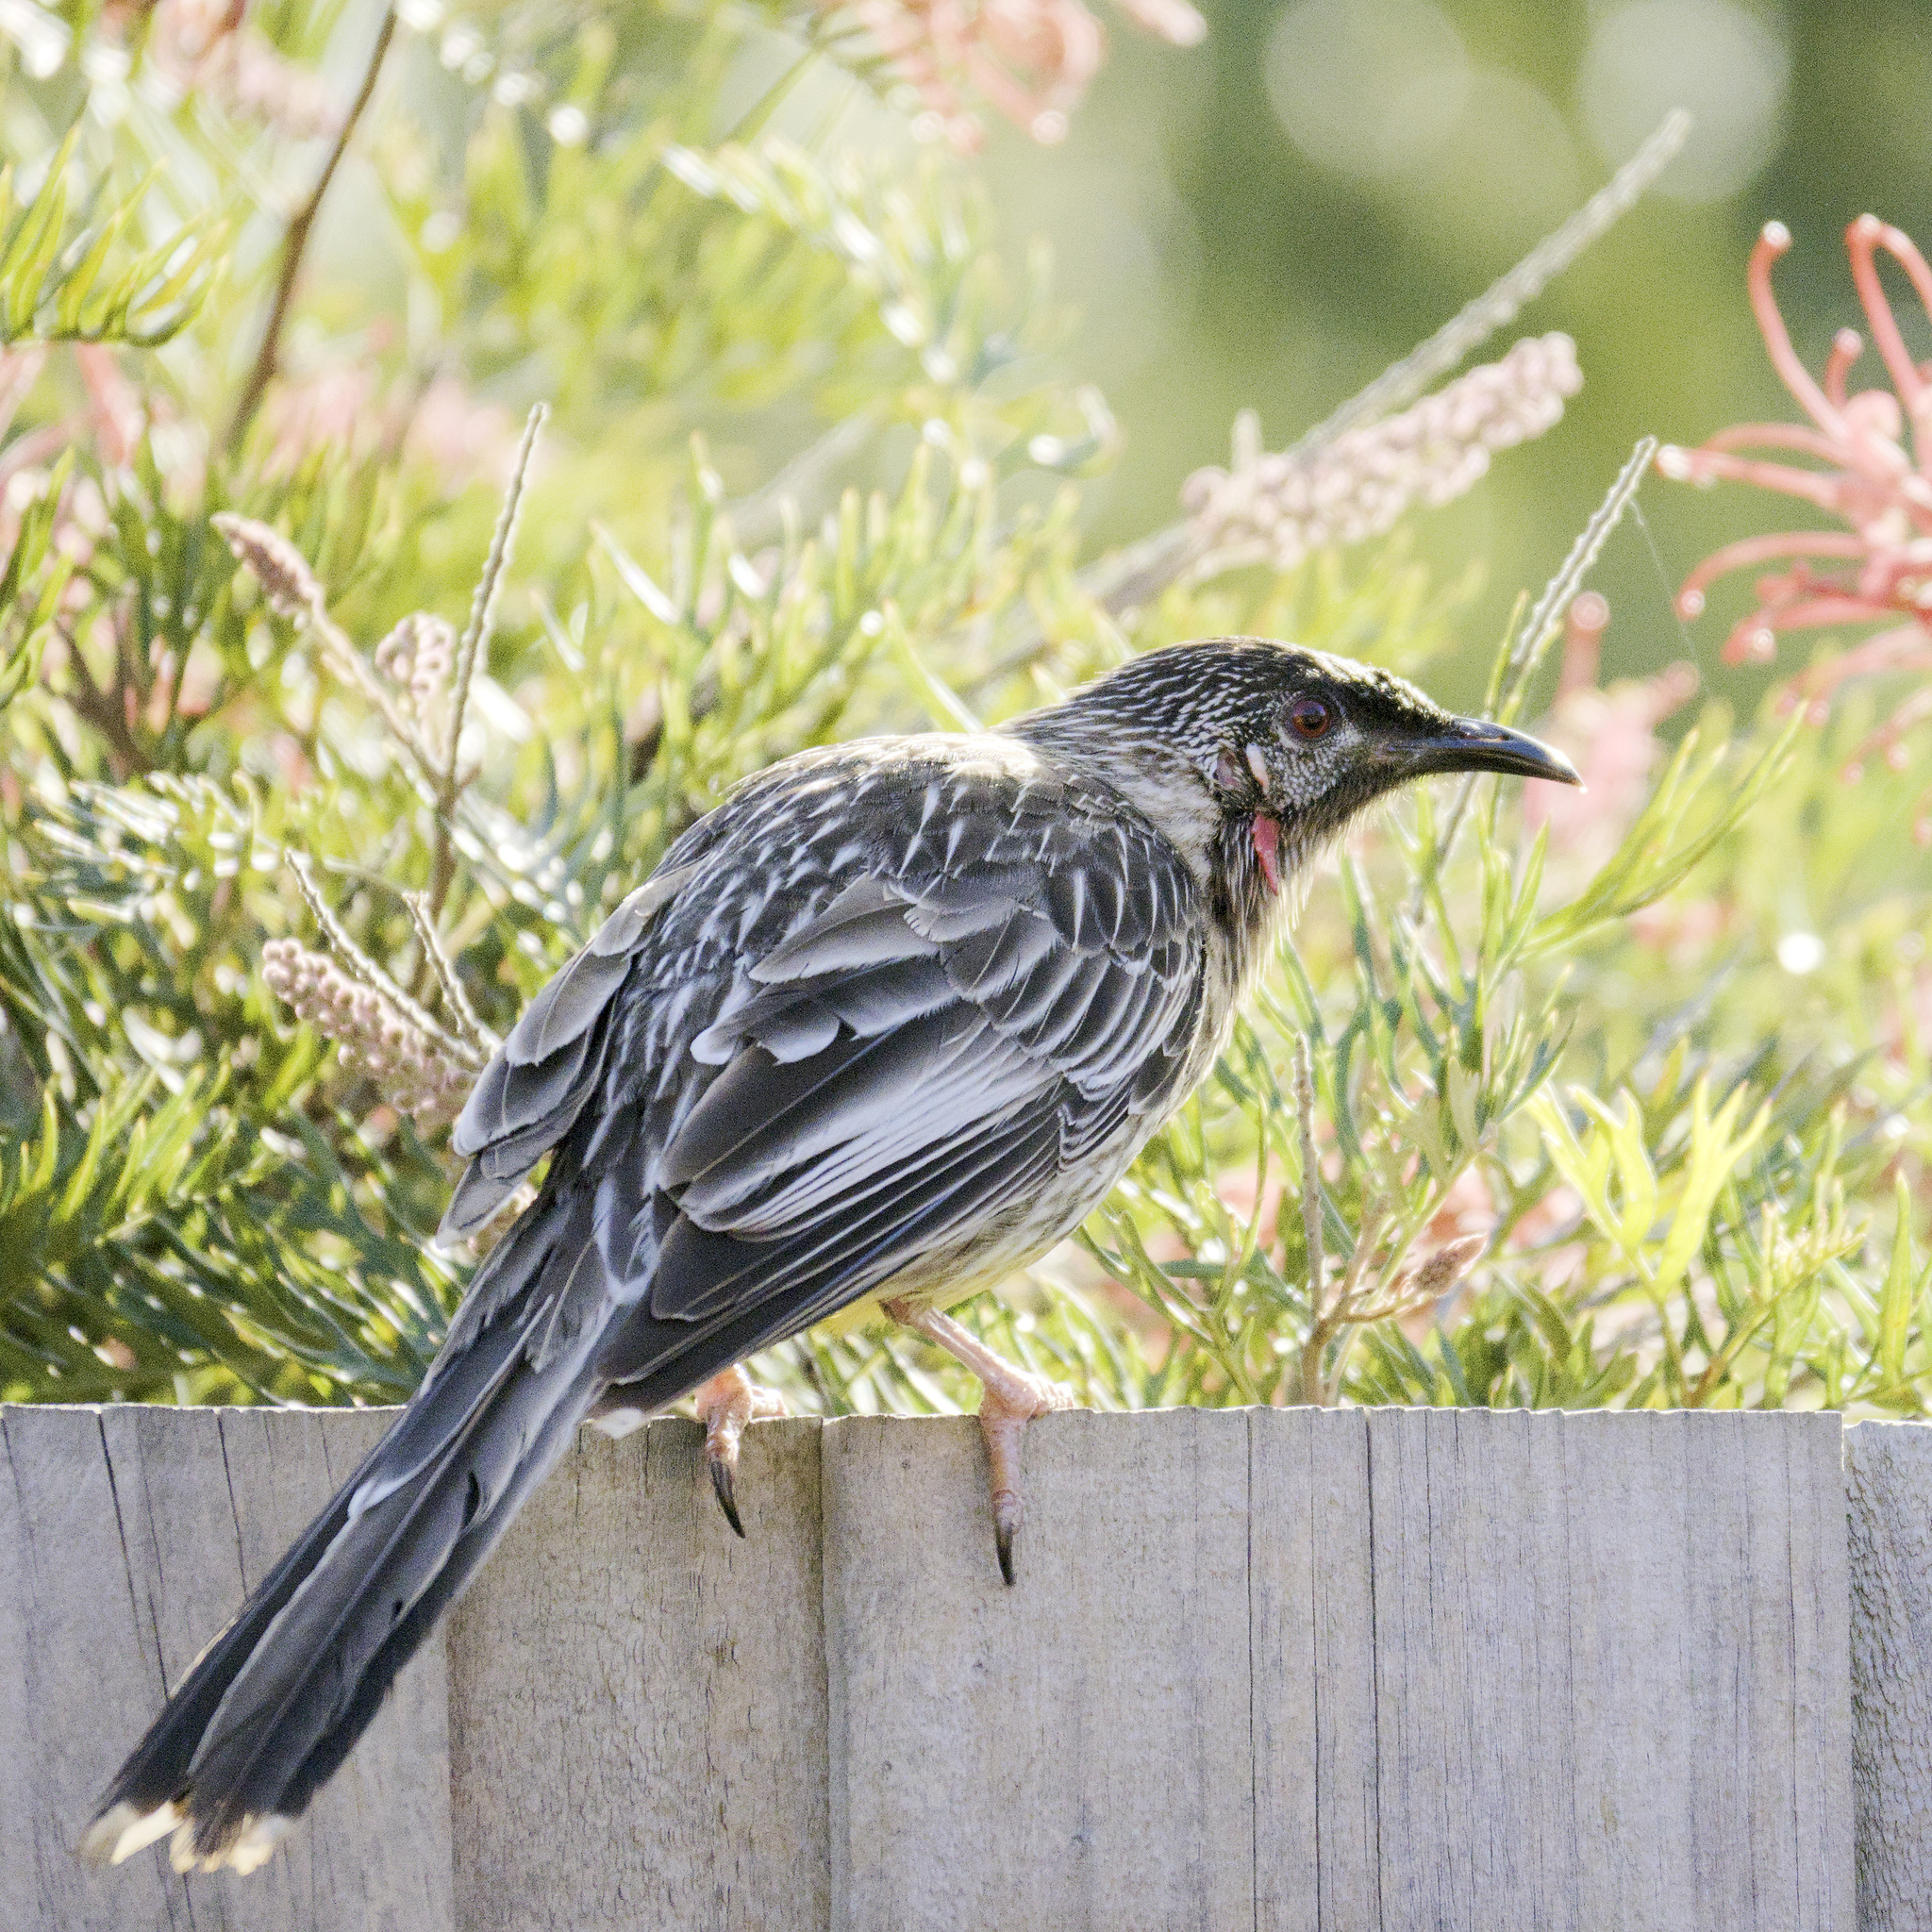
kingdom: Animalia
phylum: Chordata
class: Aves
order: Passeriformes
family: Meliphagidae
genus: Anthochaera
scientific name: Anthochaera carunculata
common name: Red wattlebird
